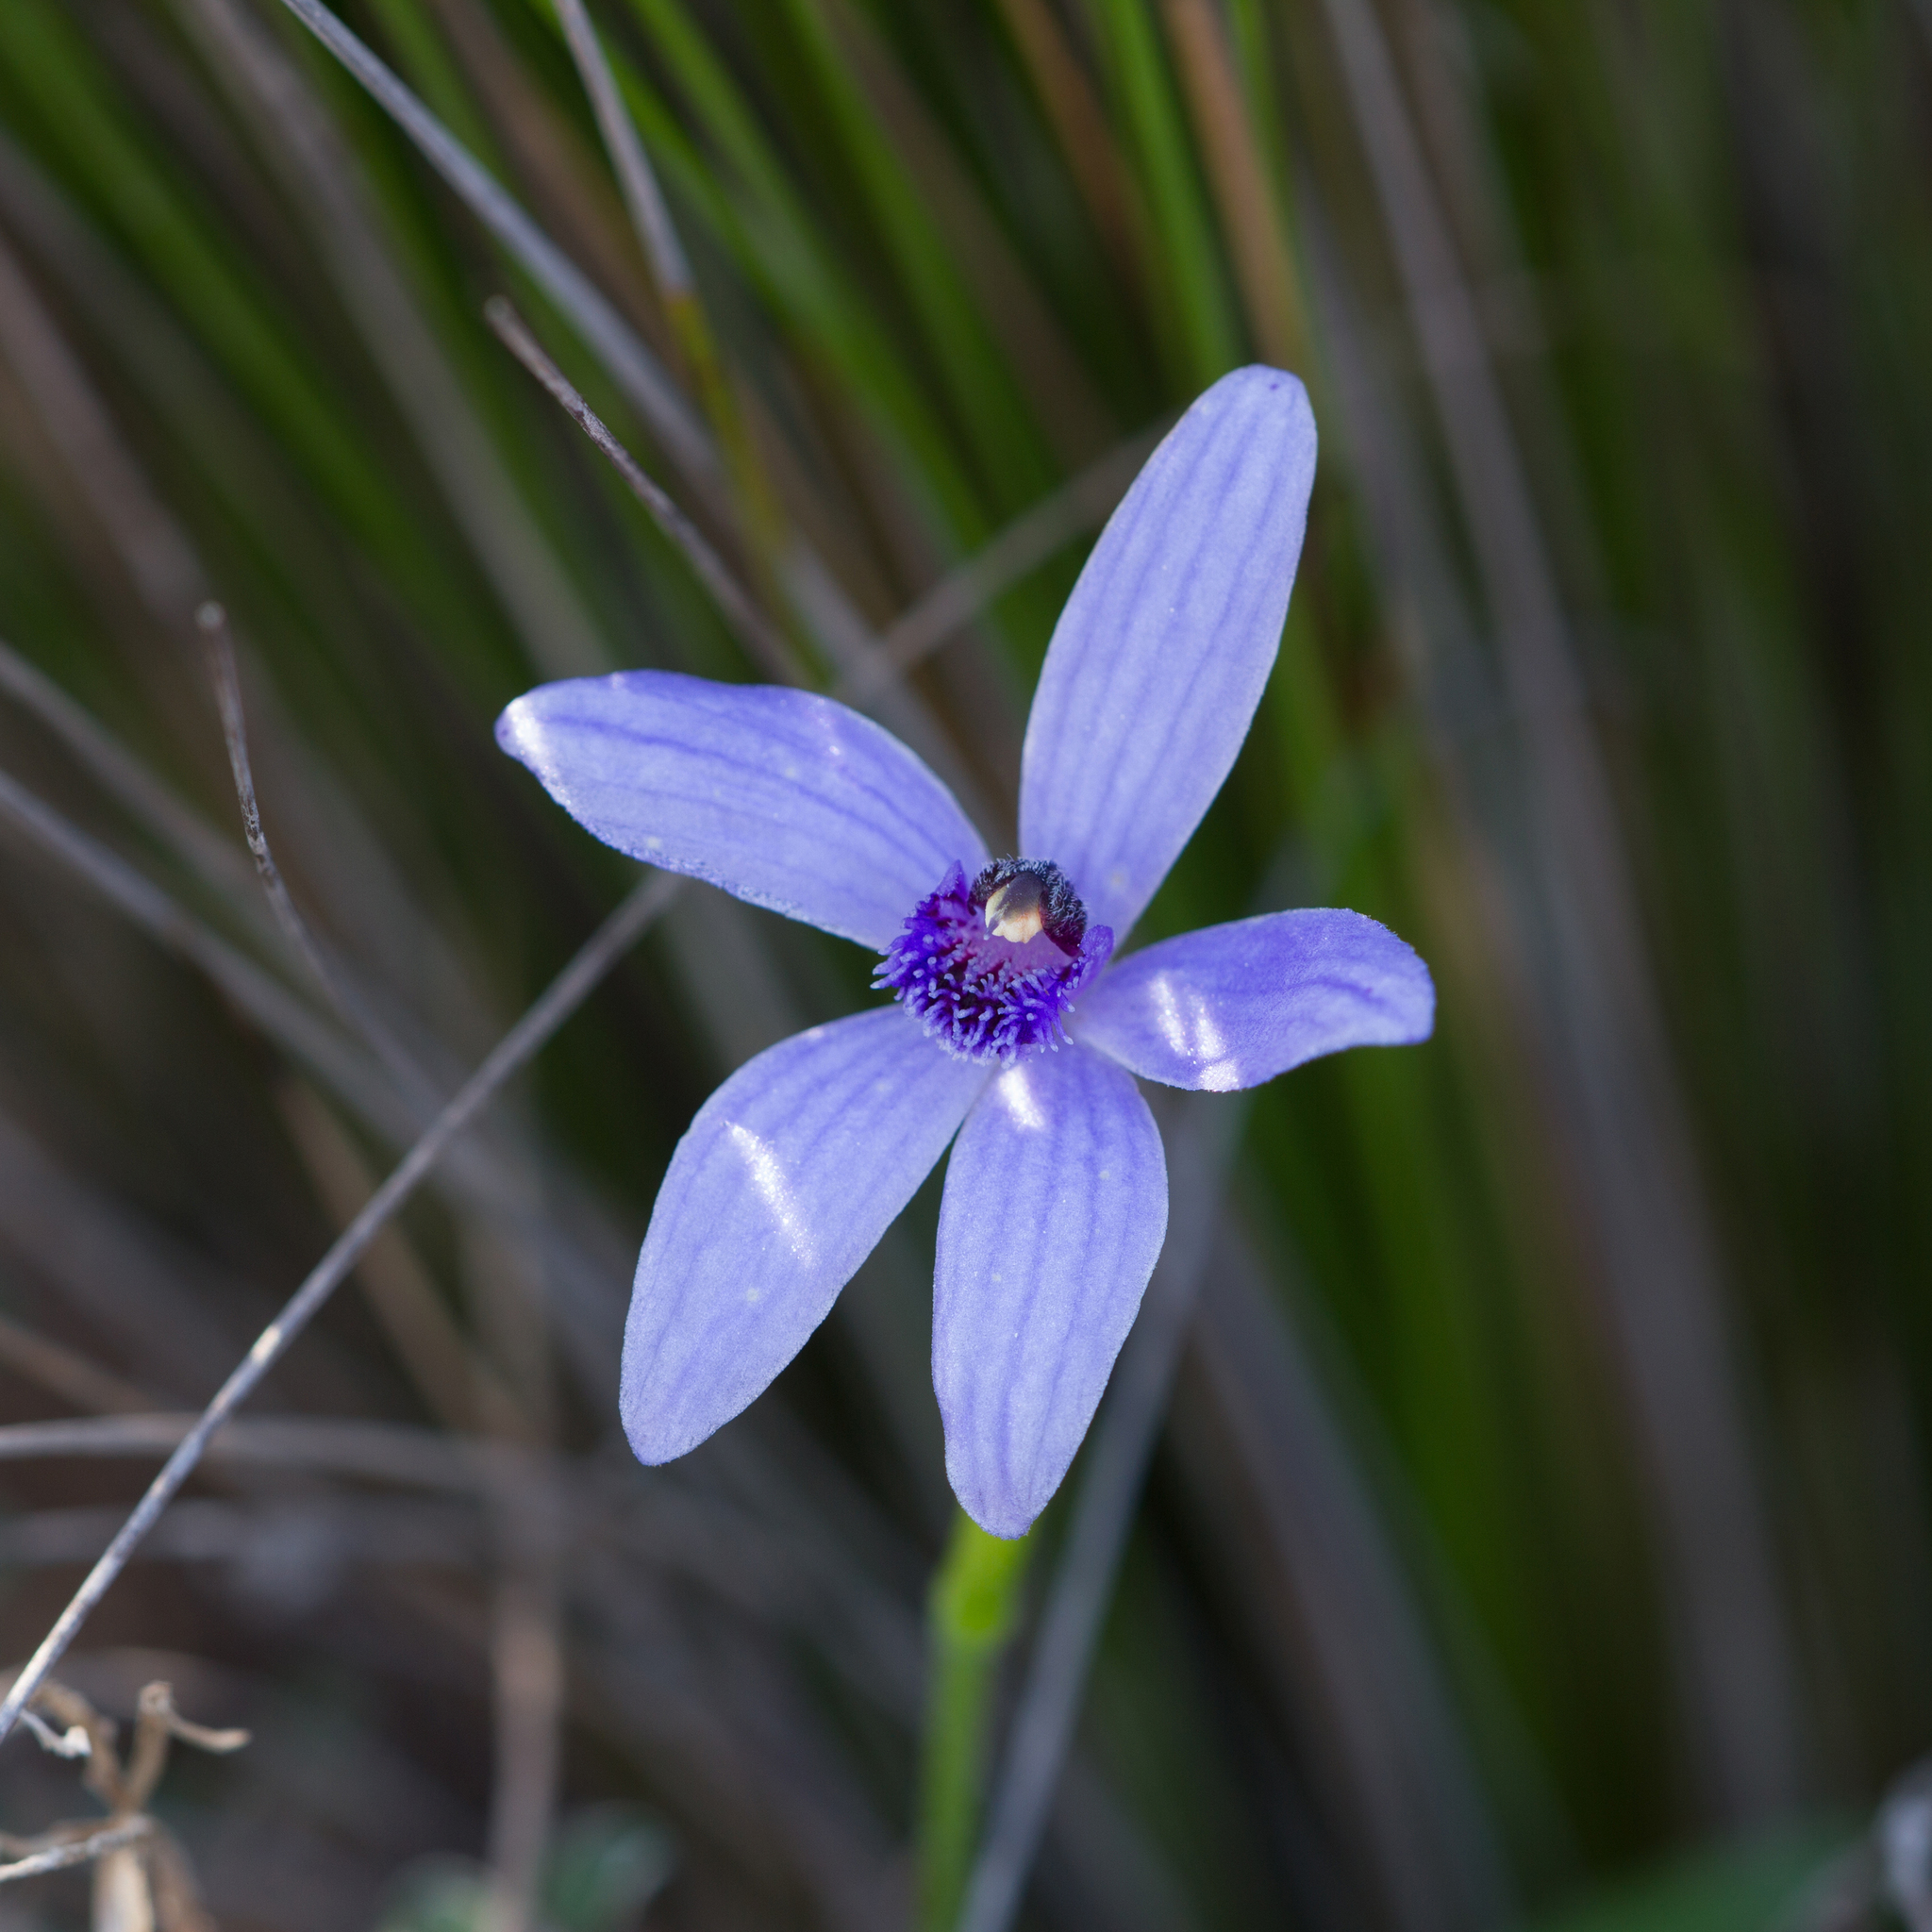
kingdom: Plantae
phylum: Tracheophyta
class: Liliopsida
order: Asparagales
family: Orchidaceae
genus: Pheladenia
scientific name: Pheladenia deformis
